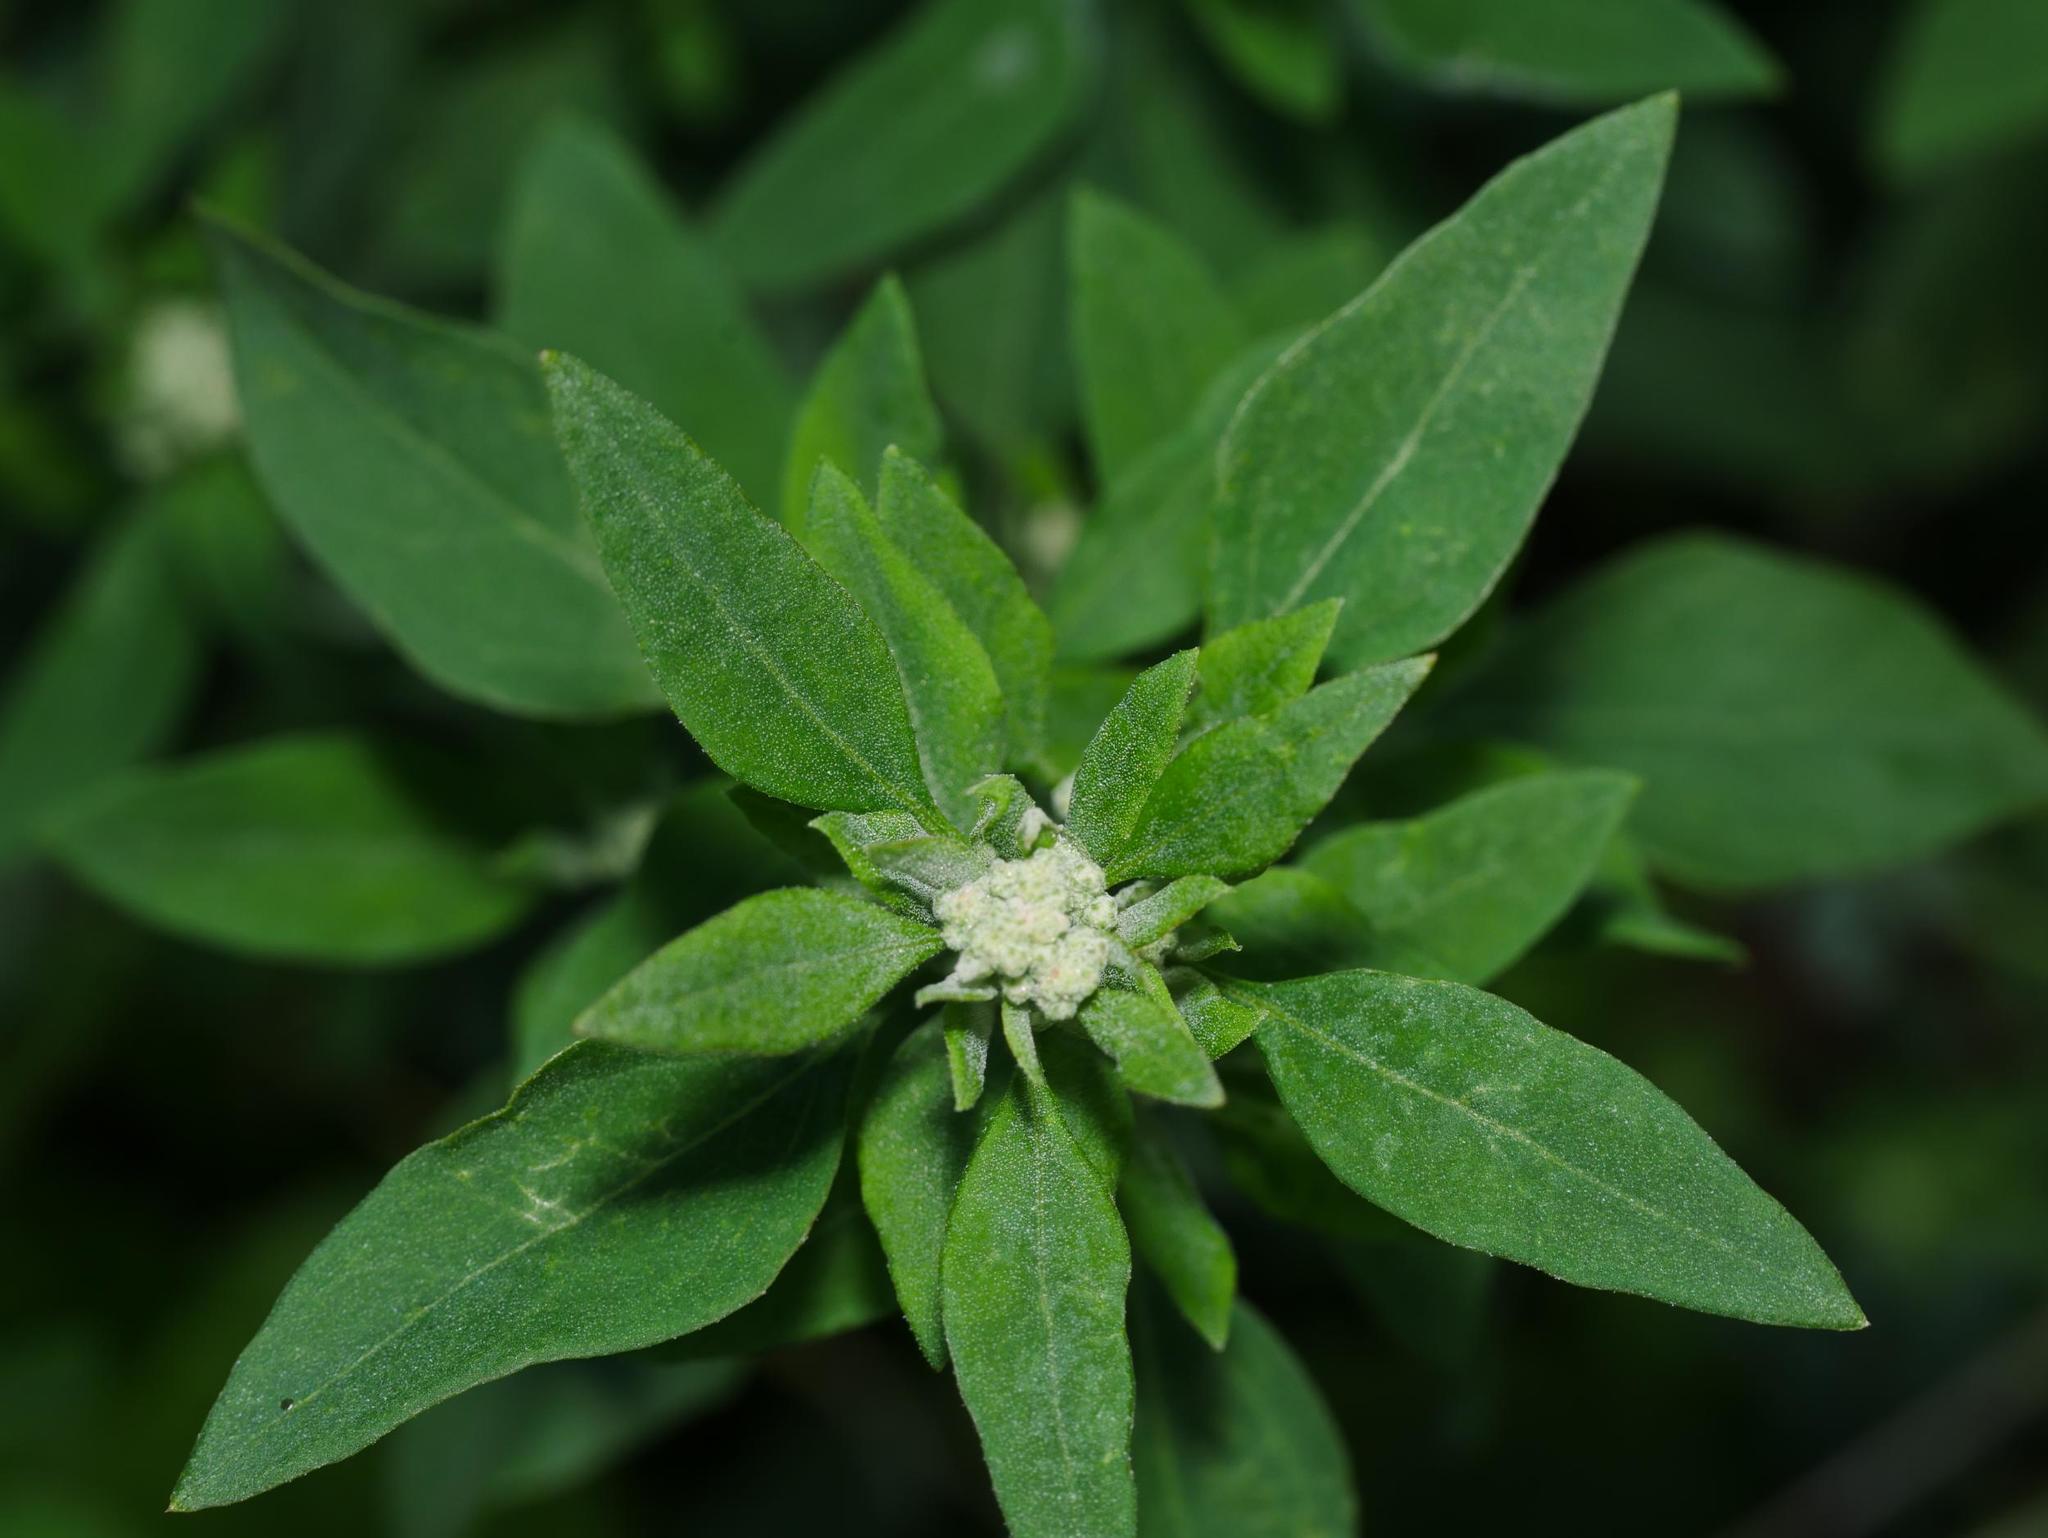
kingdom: Plantae
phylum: Tracheophyta
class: Magnoliopsida
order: Caryophyllales
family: Amaranthaceae
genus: Chenopodium
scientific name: Chenopodium album
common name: Fat-hen
